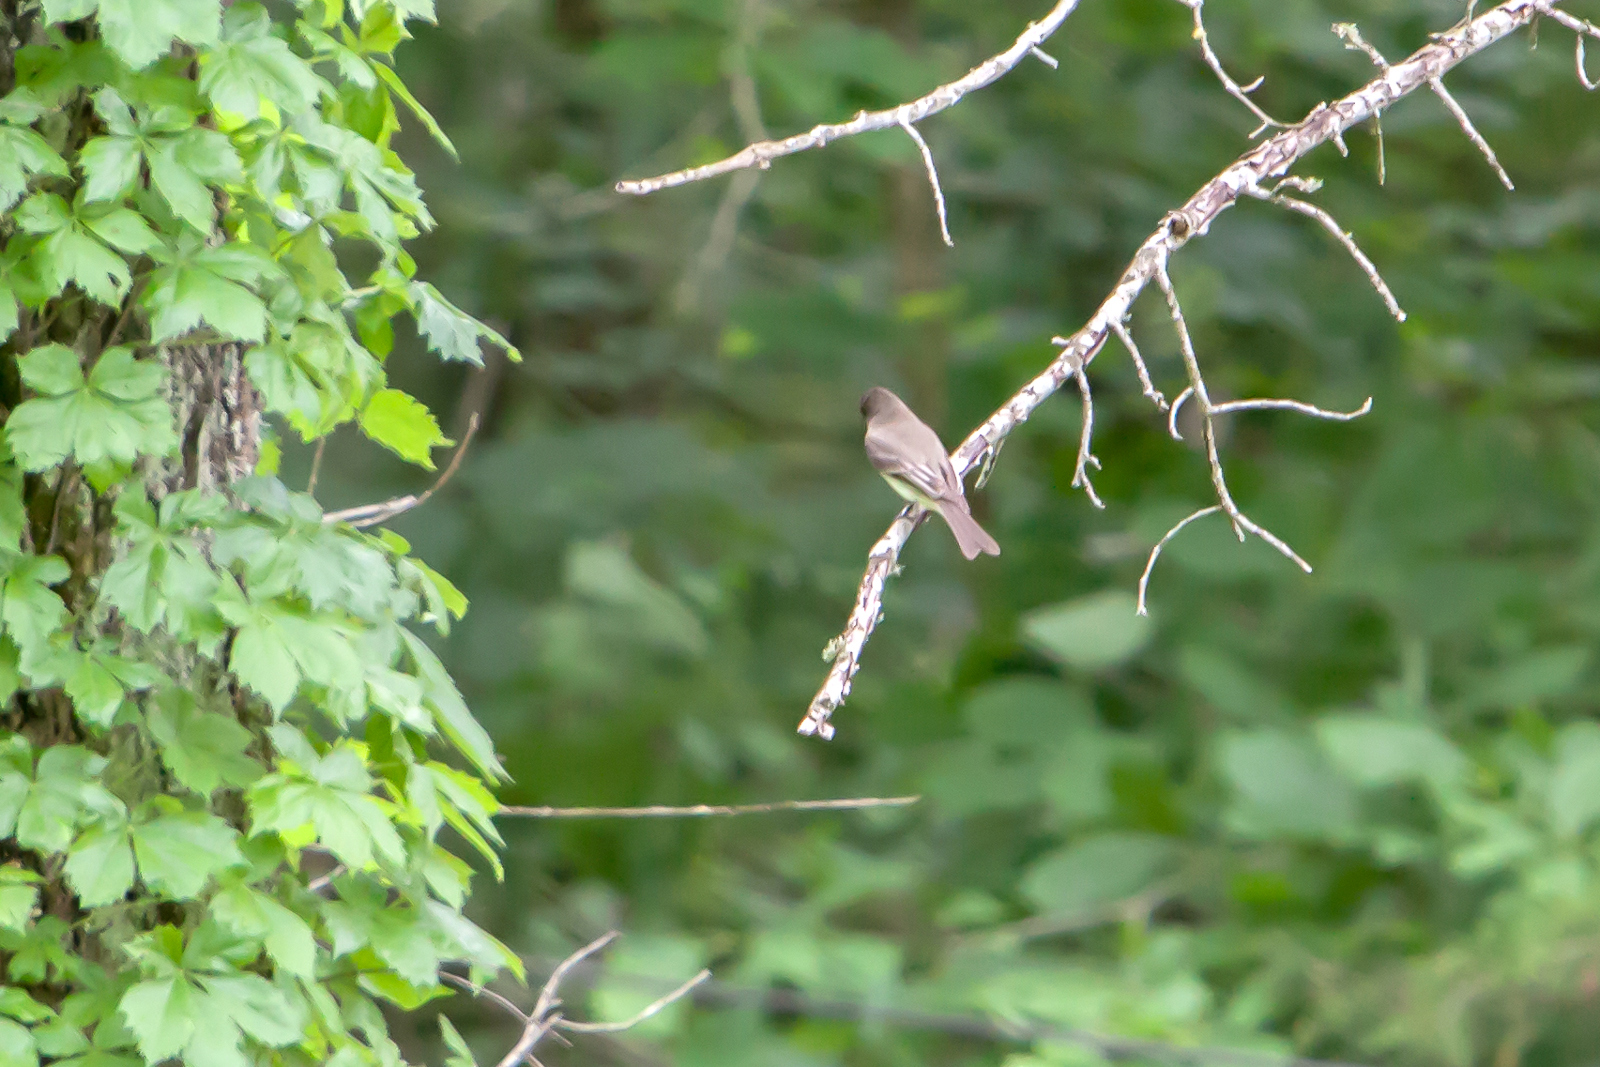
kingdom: Animalia
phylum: Chordata
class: Aves
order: Passeriformes
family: Tyrannidae
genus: Sayornis
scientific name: Sayornis phoebe
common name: Eastern phoebe
